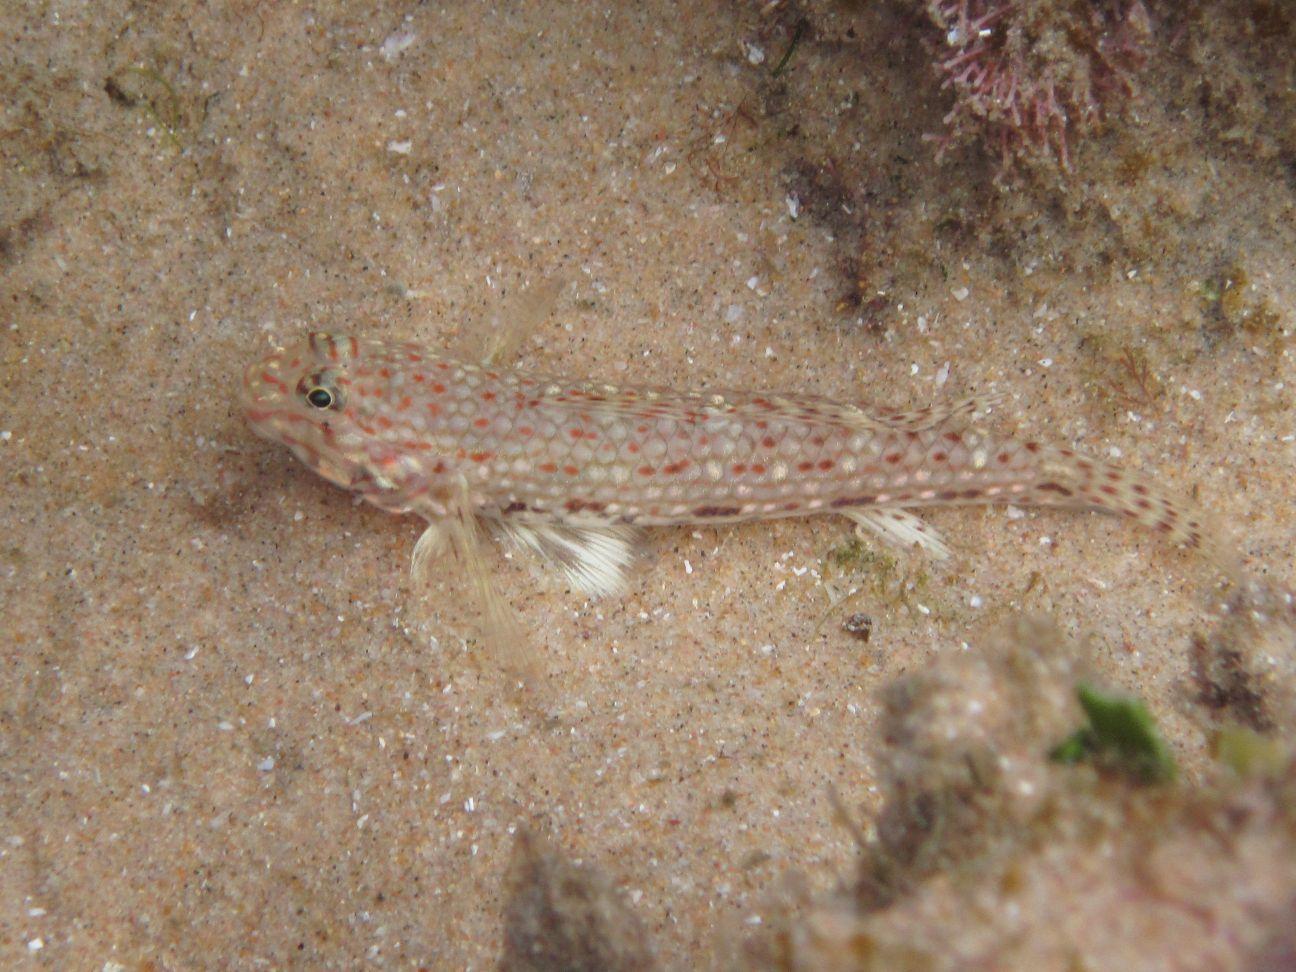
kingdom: Animalia
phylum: Chordata
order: Perciformes
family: Gobiidae
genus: Istigobius
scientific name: Istigobius decoratus
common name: Decorated goby
